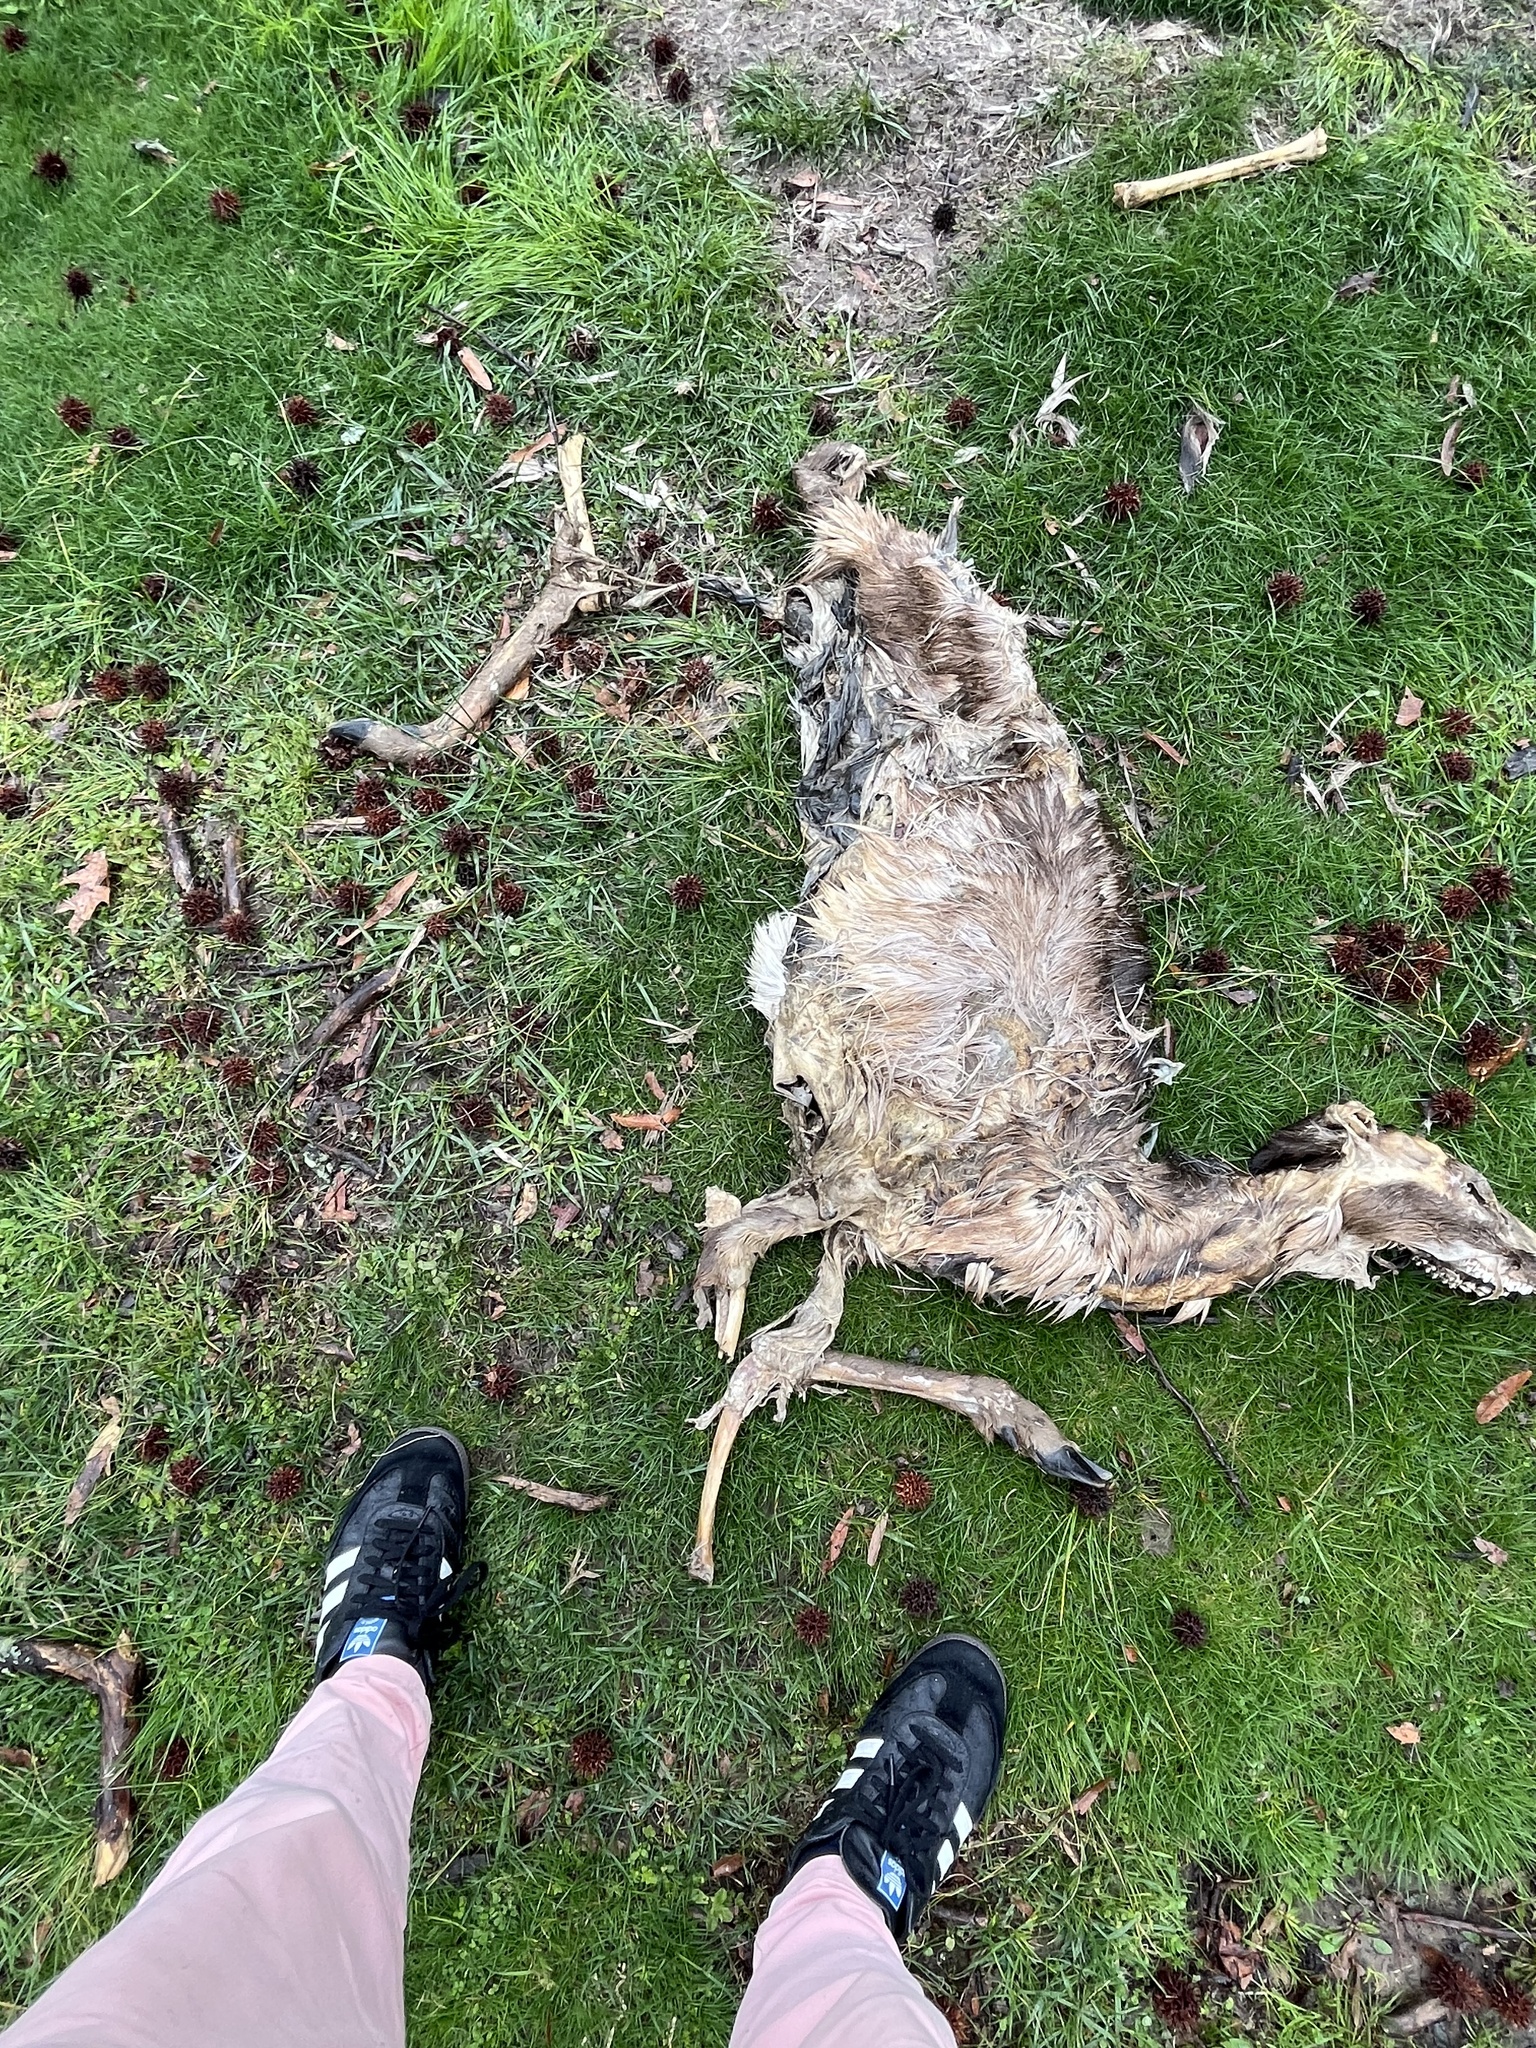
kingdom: Animalia
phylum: Chordata
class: Mammalia
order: Artiodactyla
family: Cervidae
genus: Odocoileus
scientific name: Odocoileus virginianus
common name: White-tailed deer
